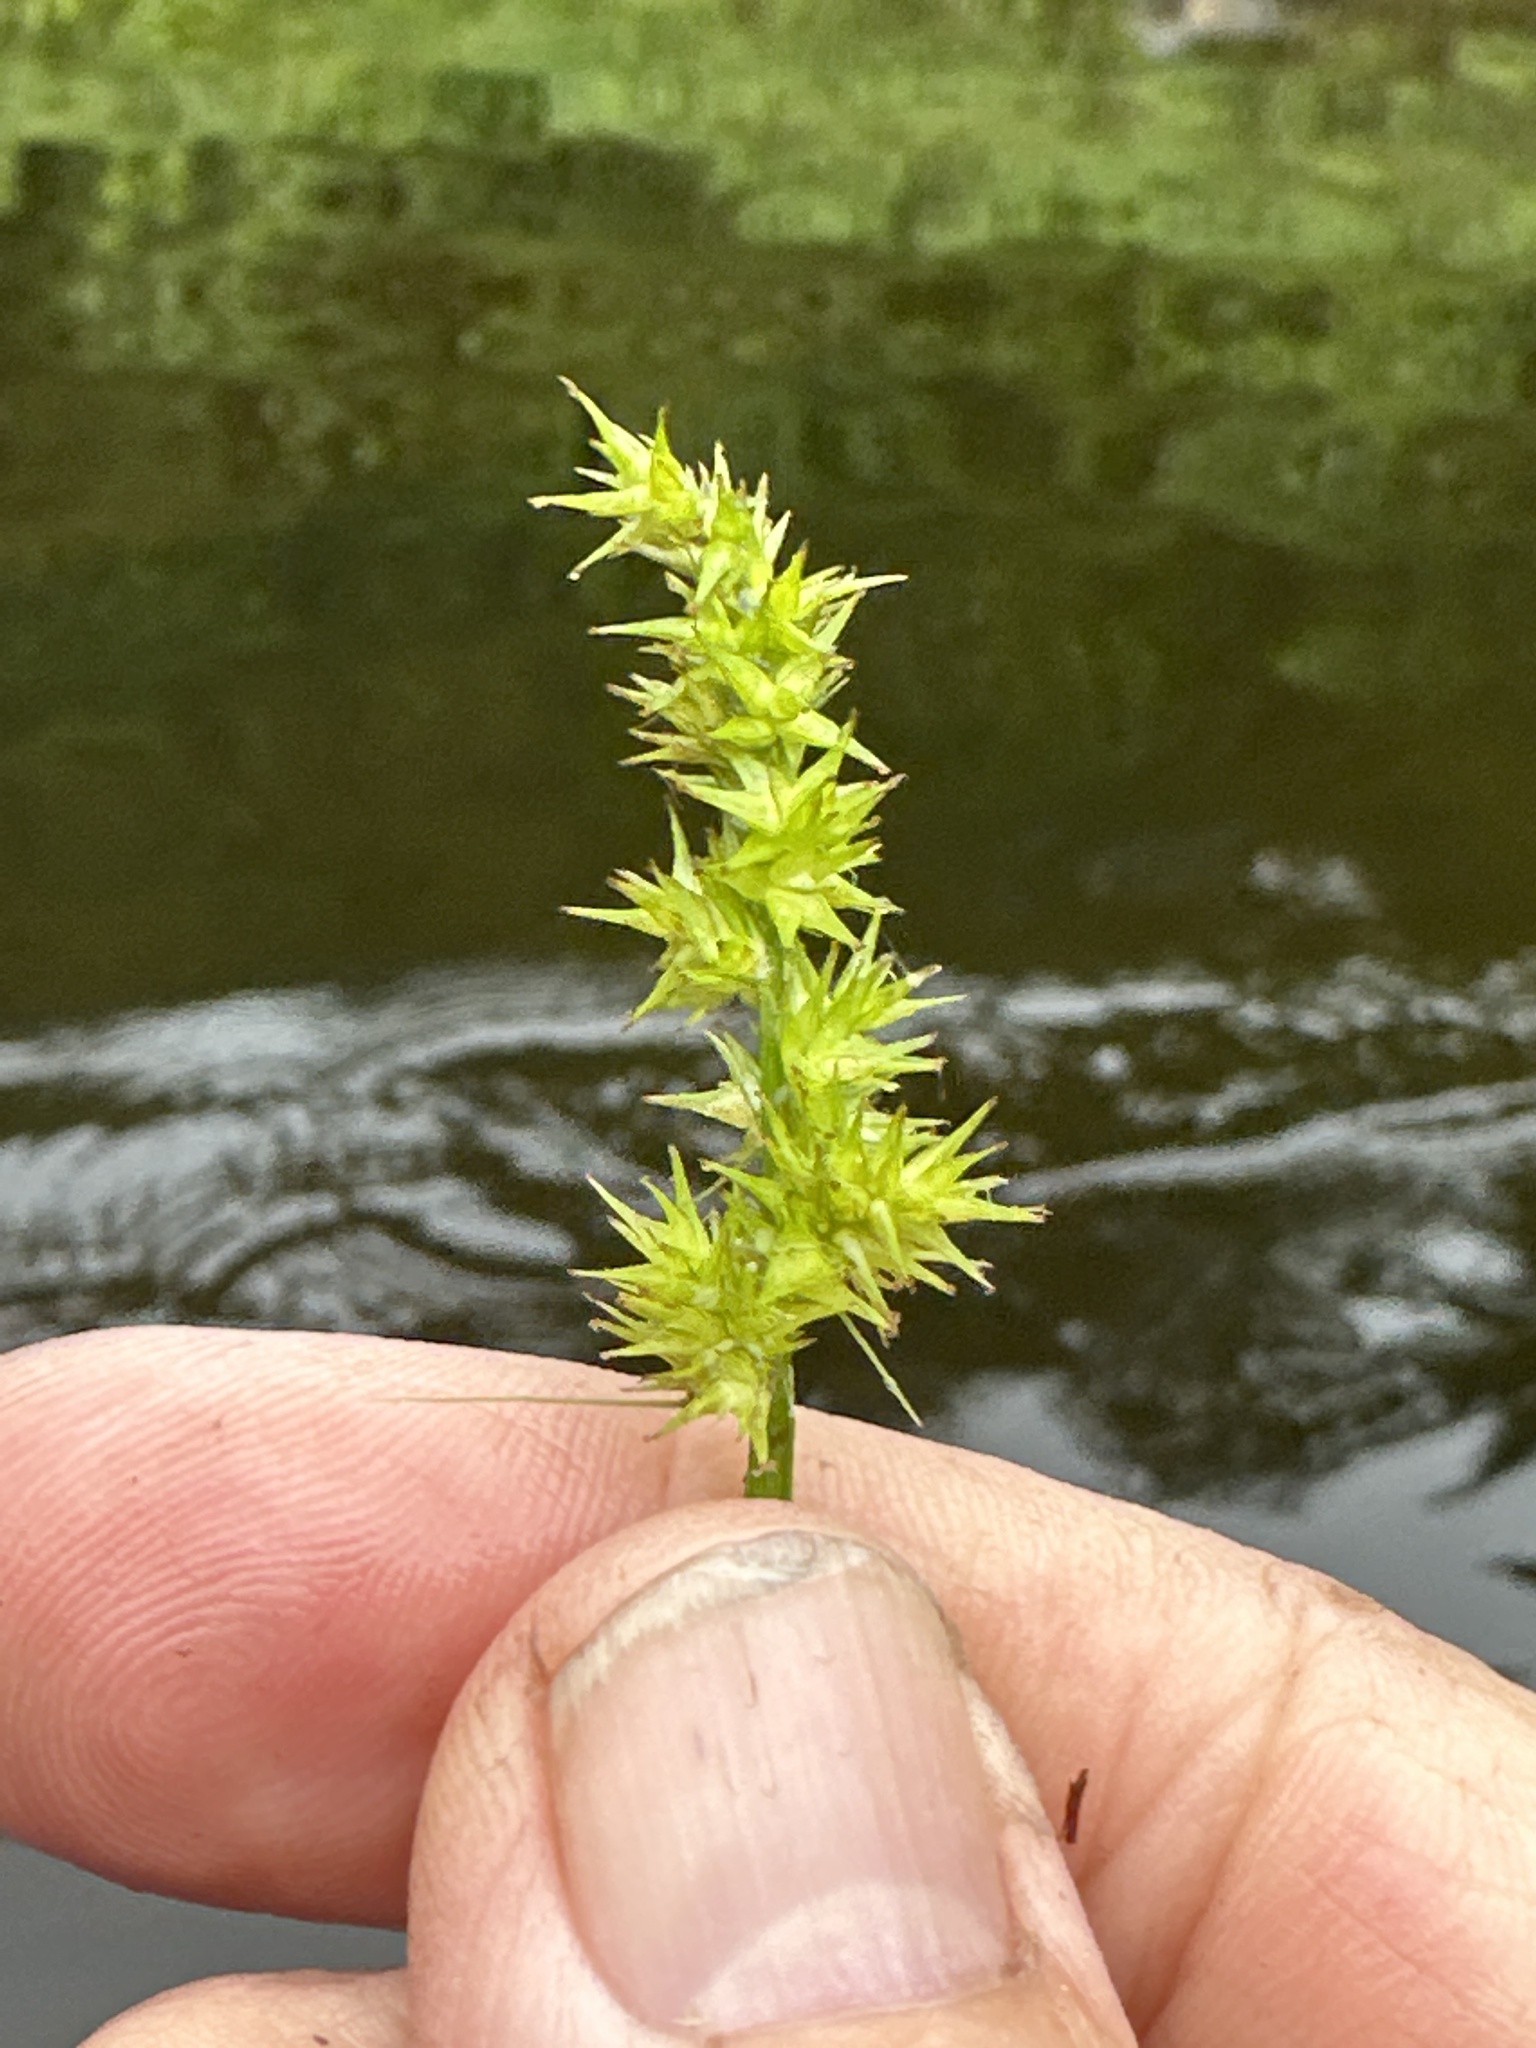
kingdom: Plantae
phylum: Tracheophyta
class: Liliopsida
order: Poales
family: Cyperaceae
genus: Carex
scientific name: Carex stipata
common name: Awl-fruited sedge
